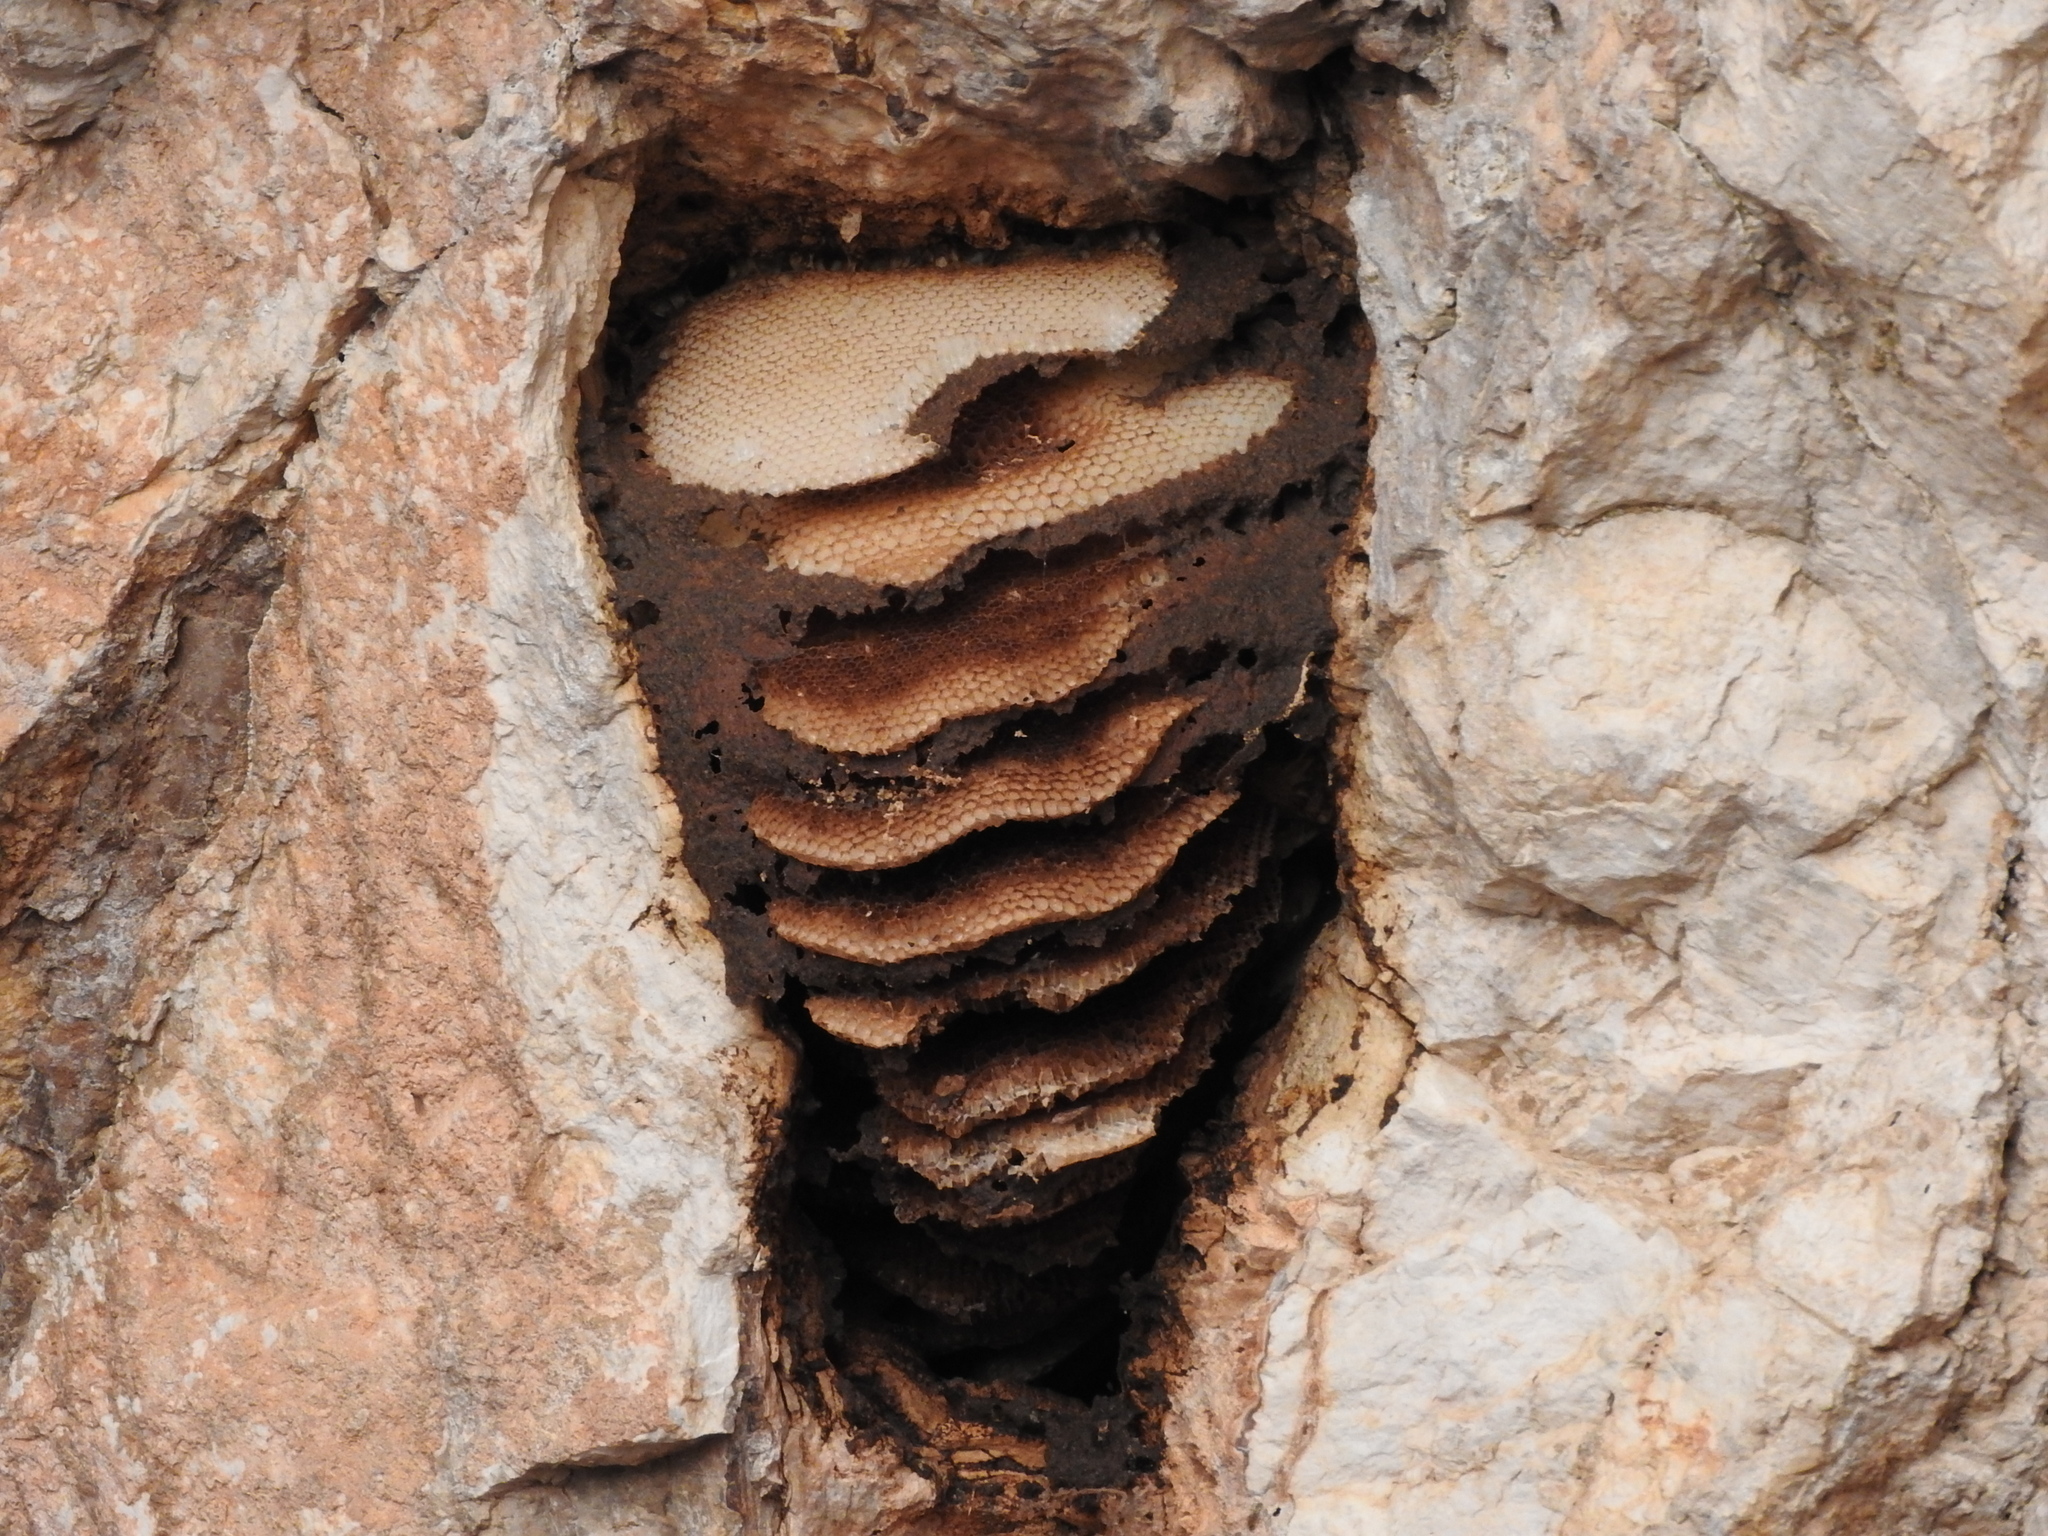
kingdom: Animalia
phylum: Arthropoda
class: Insecta
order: Hymenoptera
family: Apidae
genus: Apis
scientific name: Apis mellifera
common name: Honey bee
